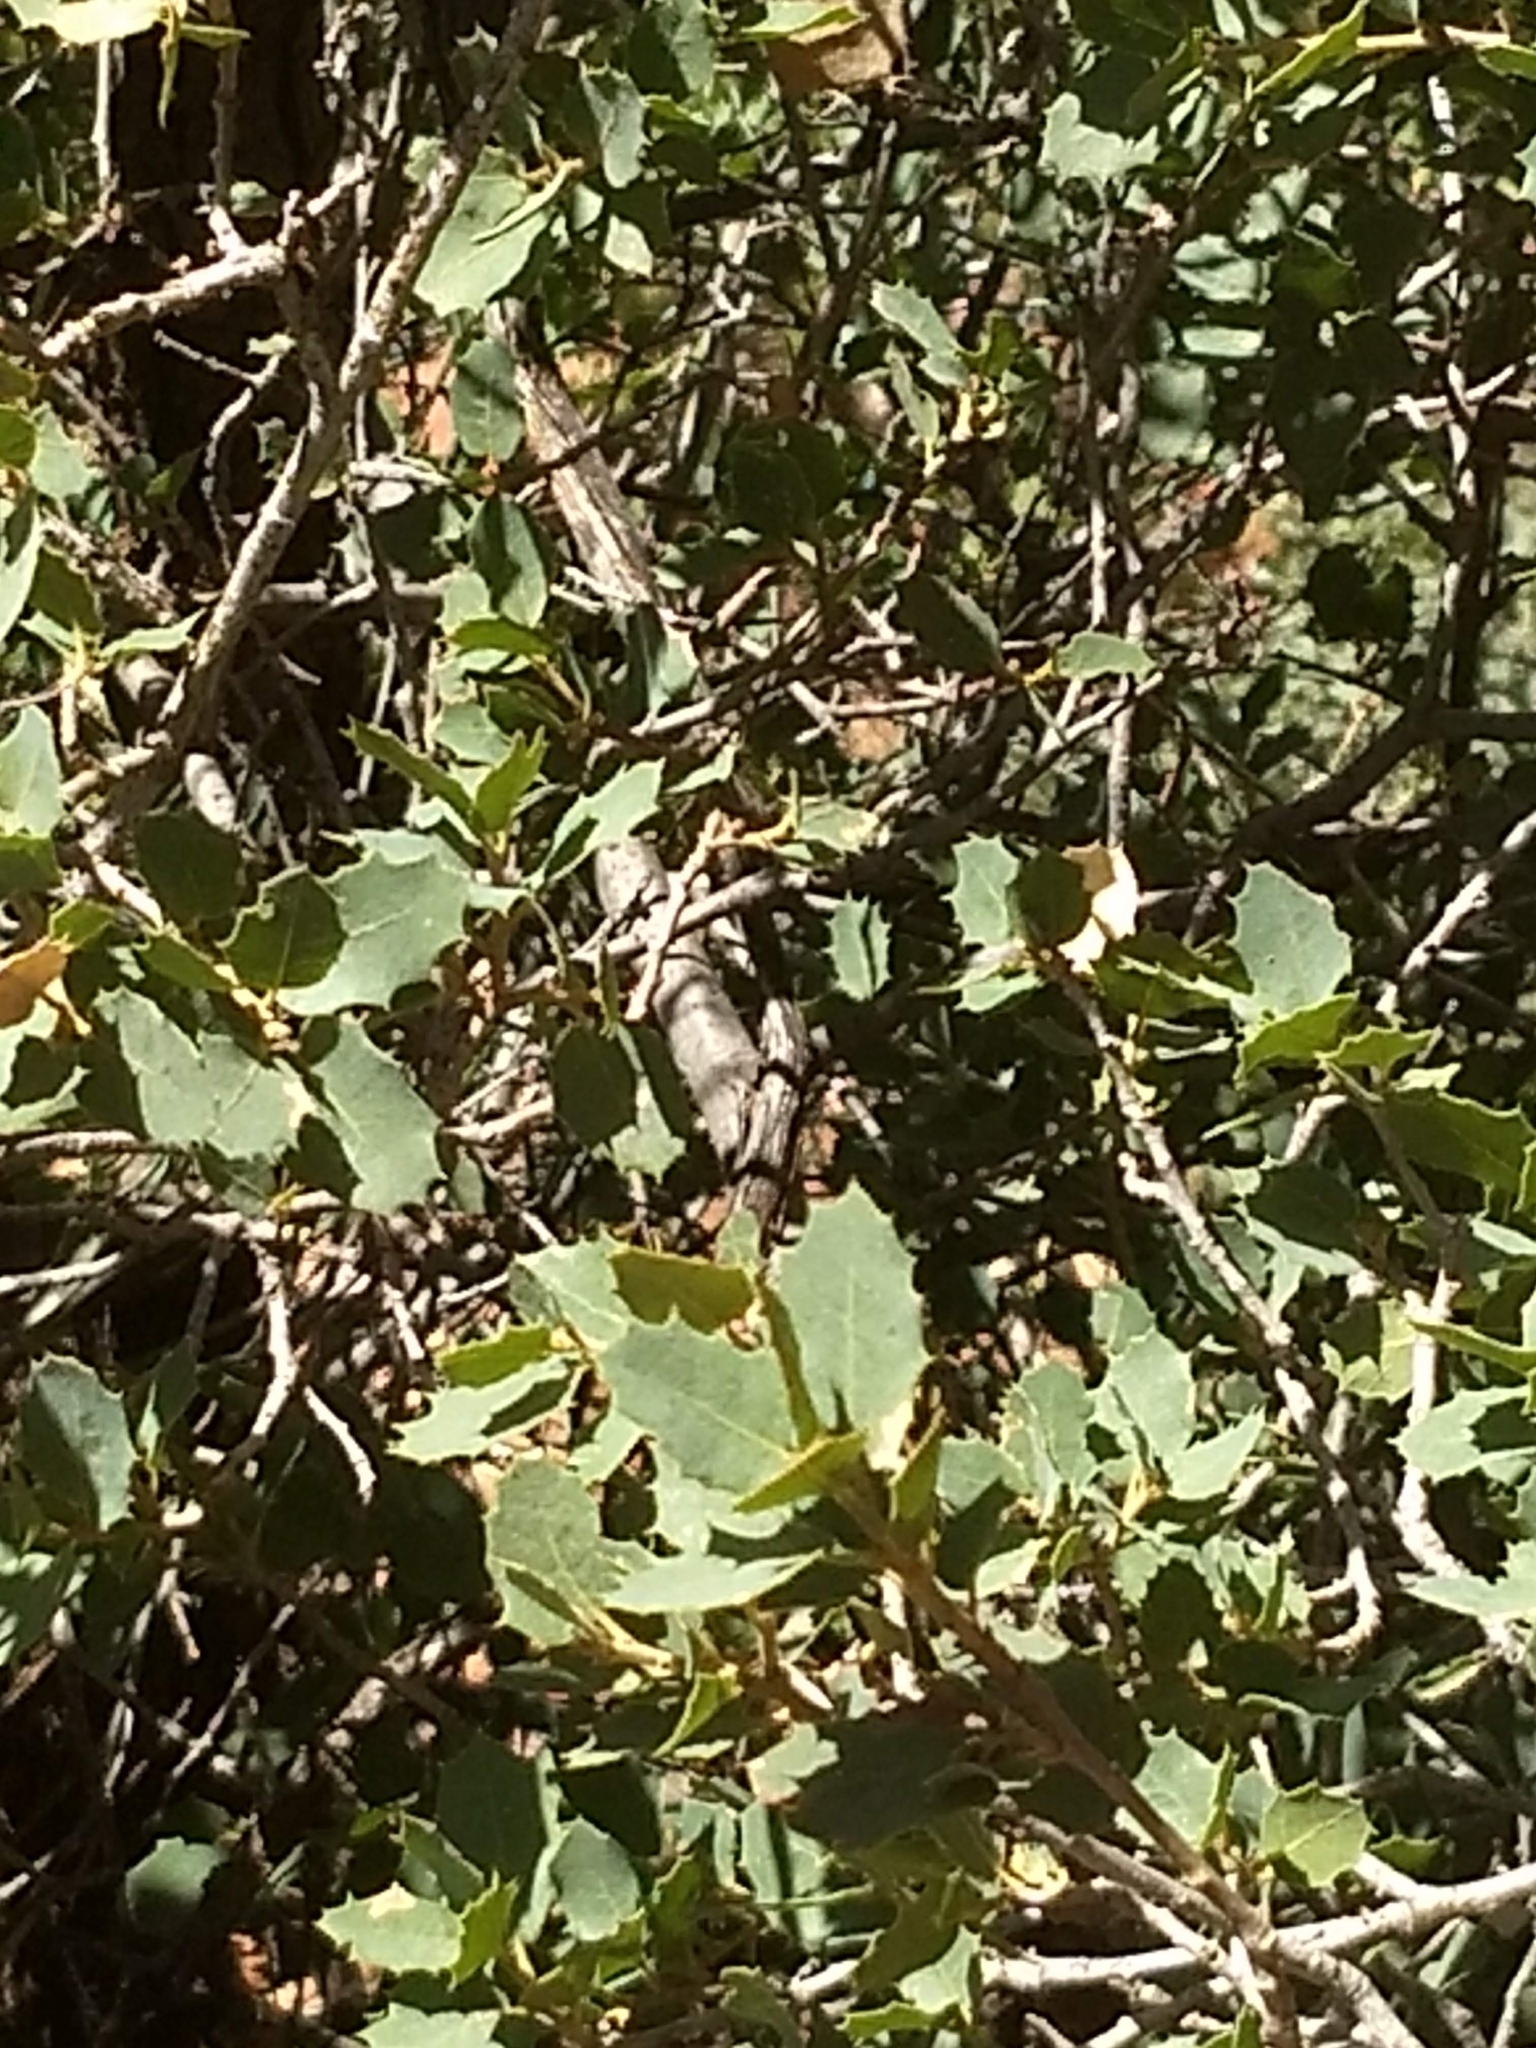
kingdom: Plantae
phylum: Tracheophyta
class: Magnoliopsida
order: Fagales
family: Fagaceae
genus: Quercus
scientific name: Quercus turbinella
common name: Sonoran scrub oak
